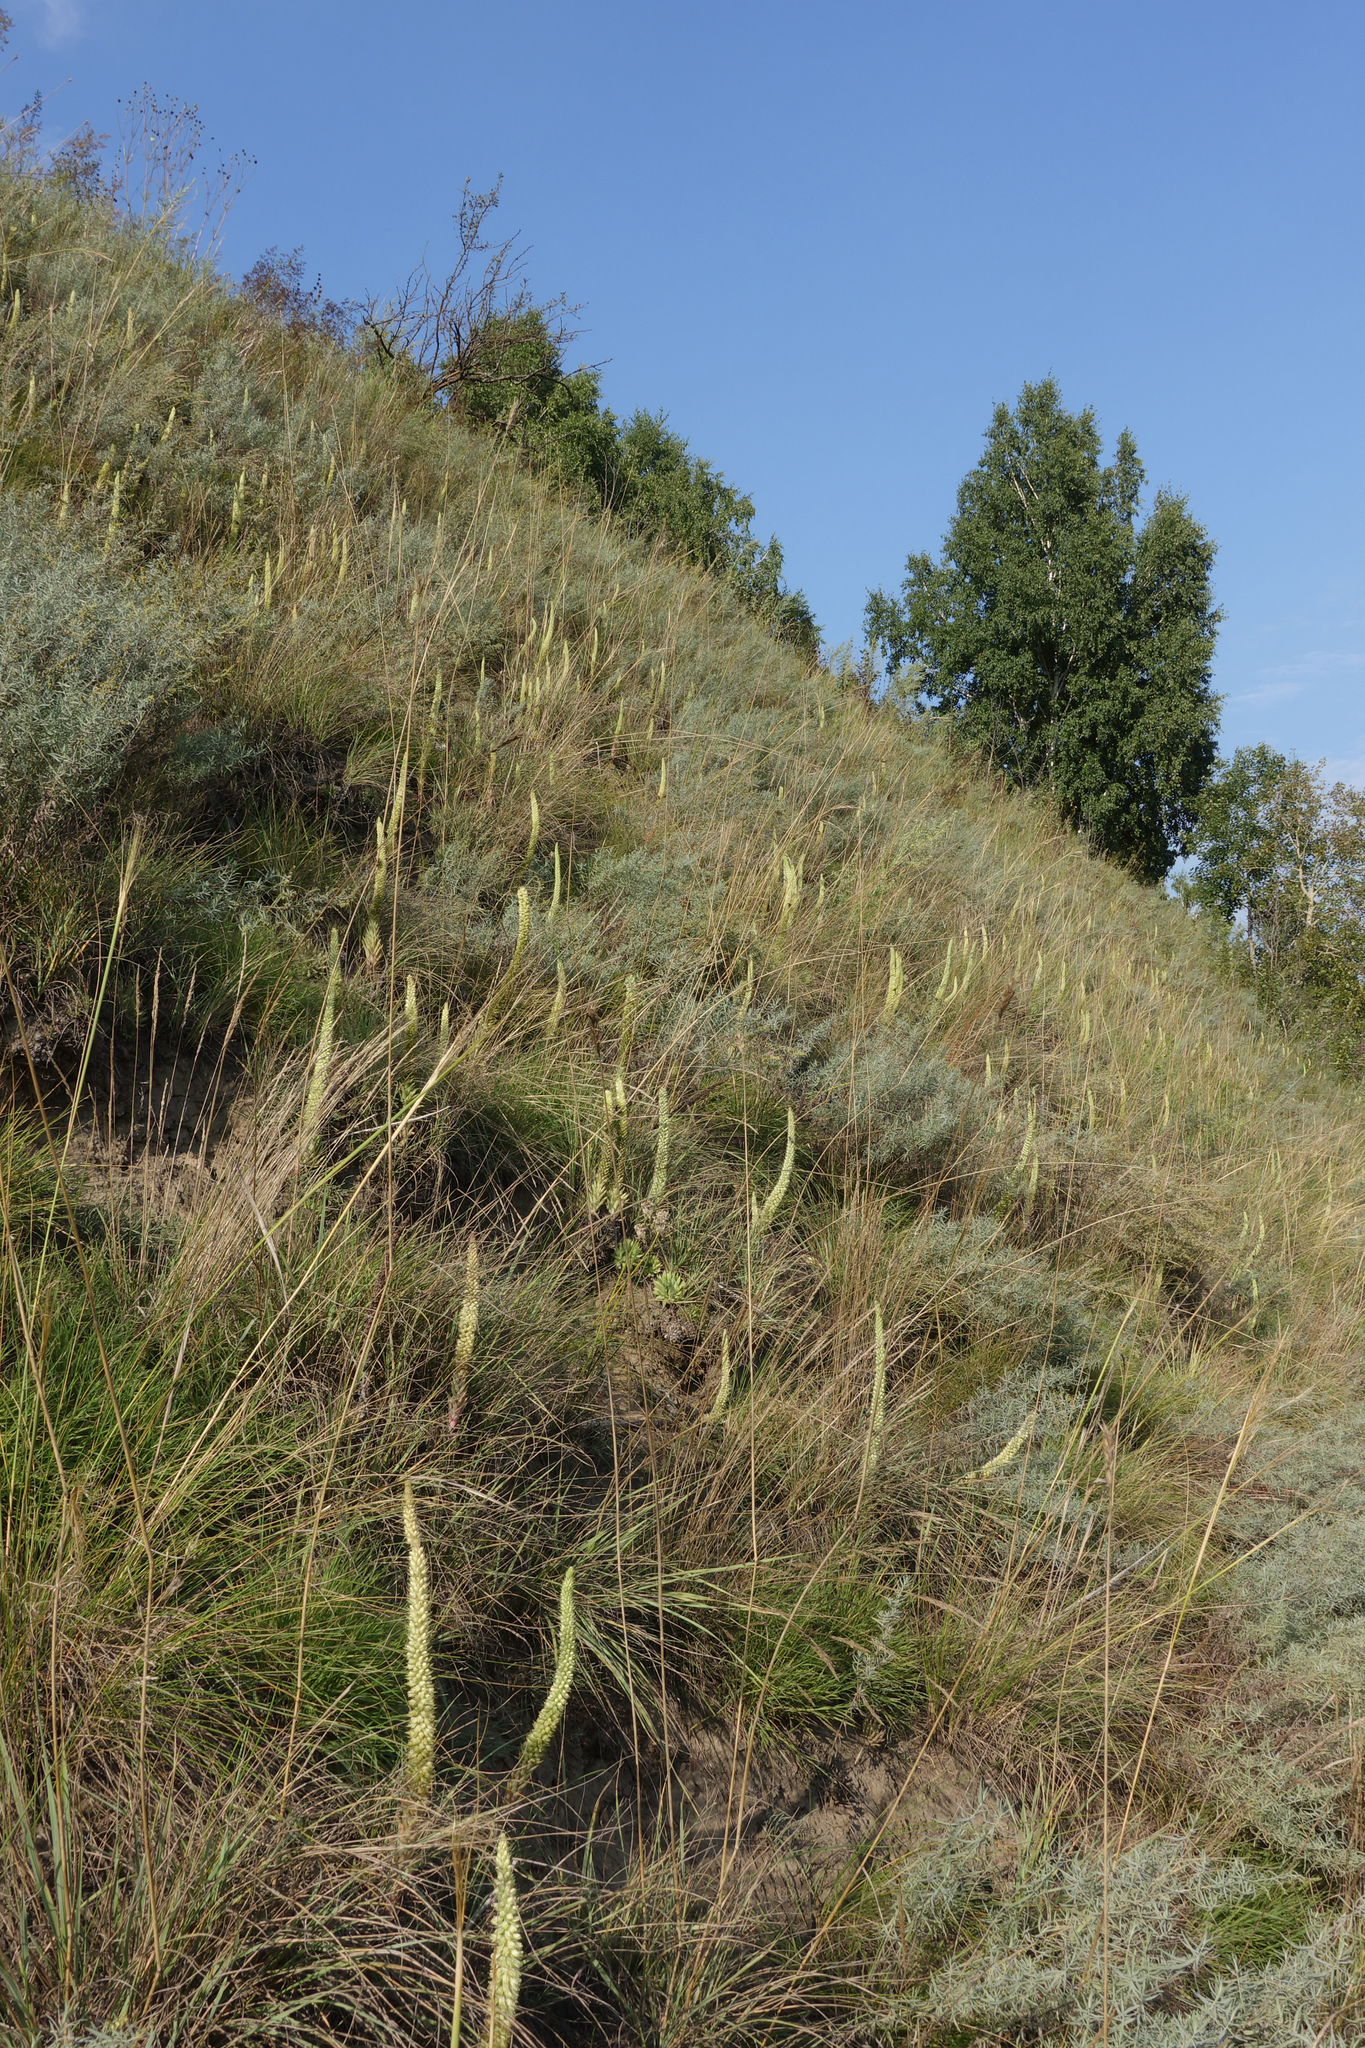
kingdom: Plantae
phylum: Tracheophyta
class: Magnoliopsida
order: Saxifragales
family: Crassulaceae
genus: Orostachys
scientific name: Orostachys spinosa
